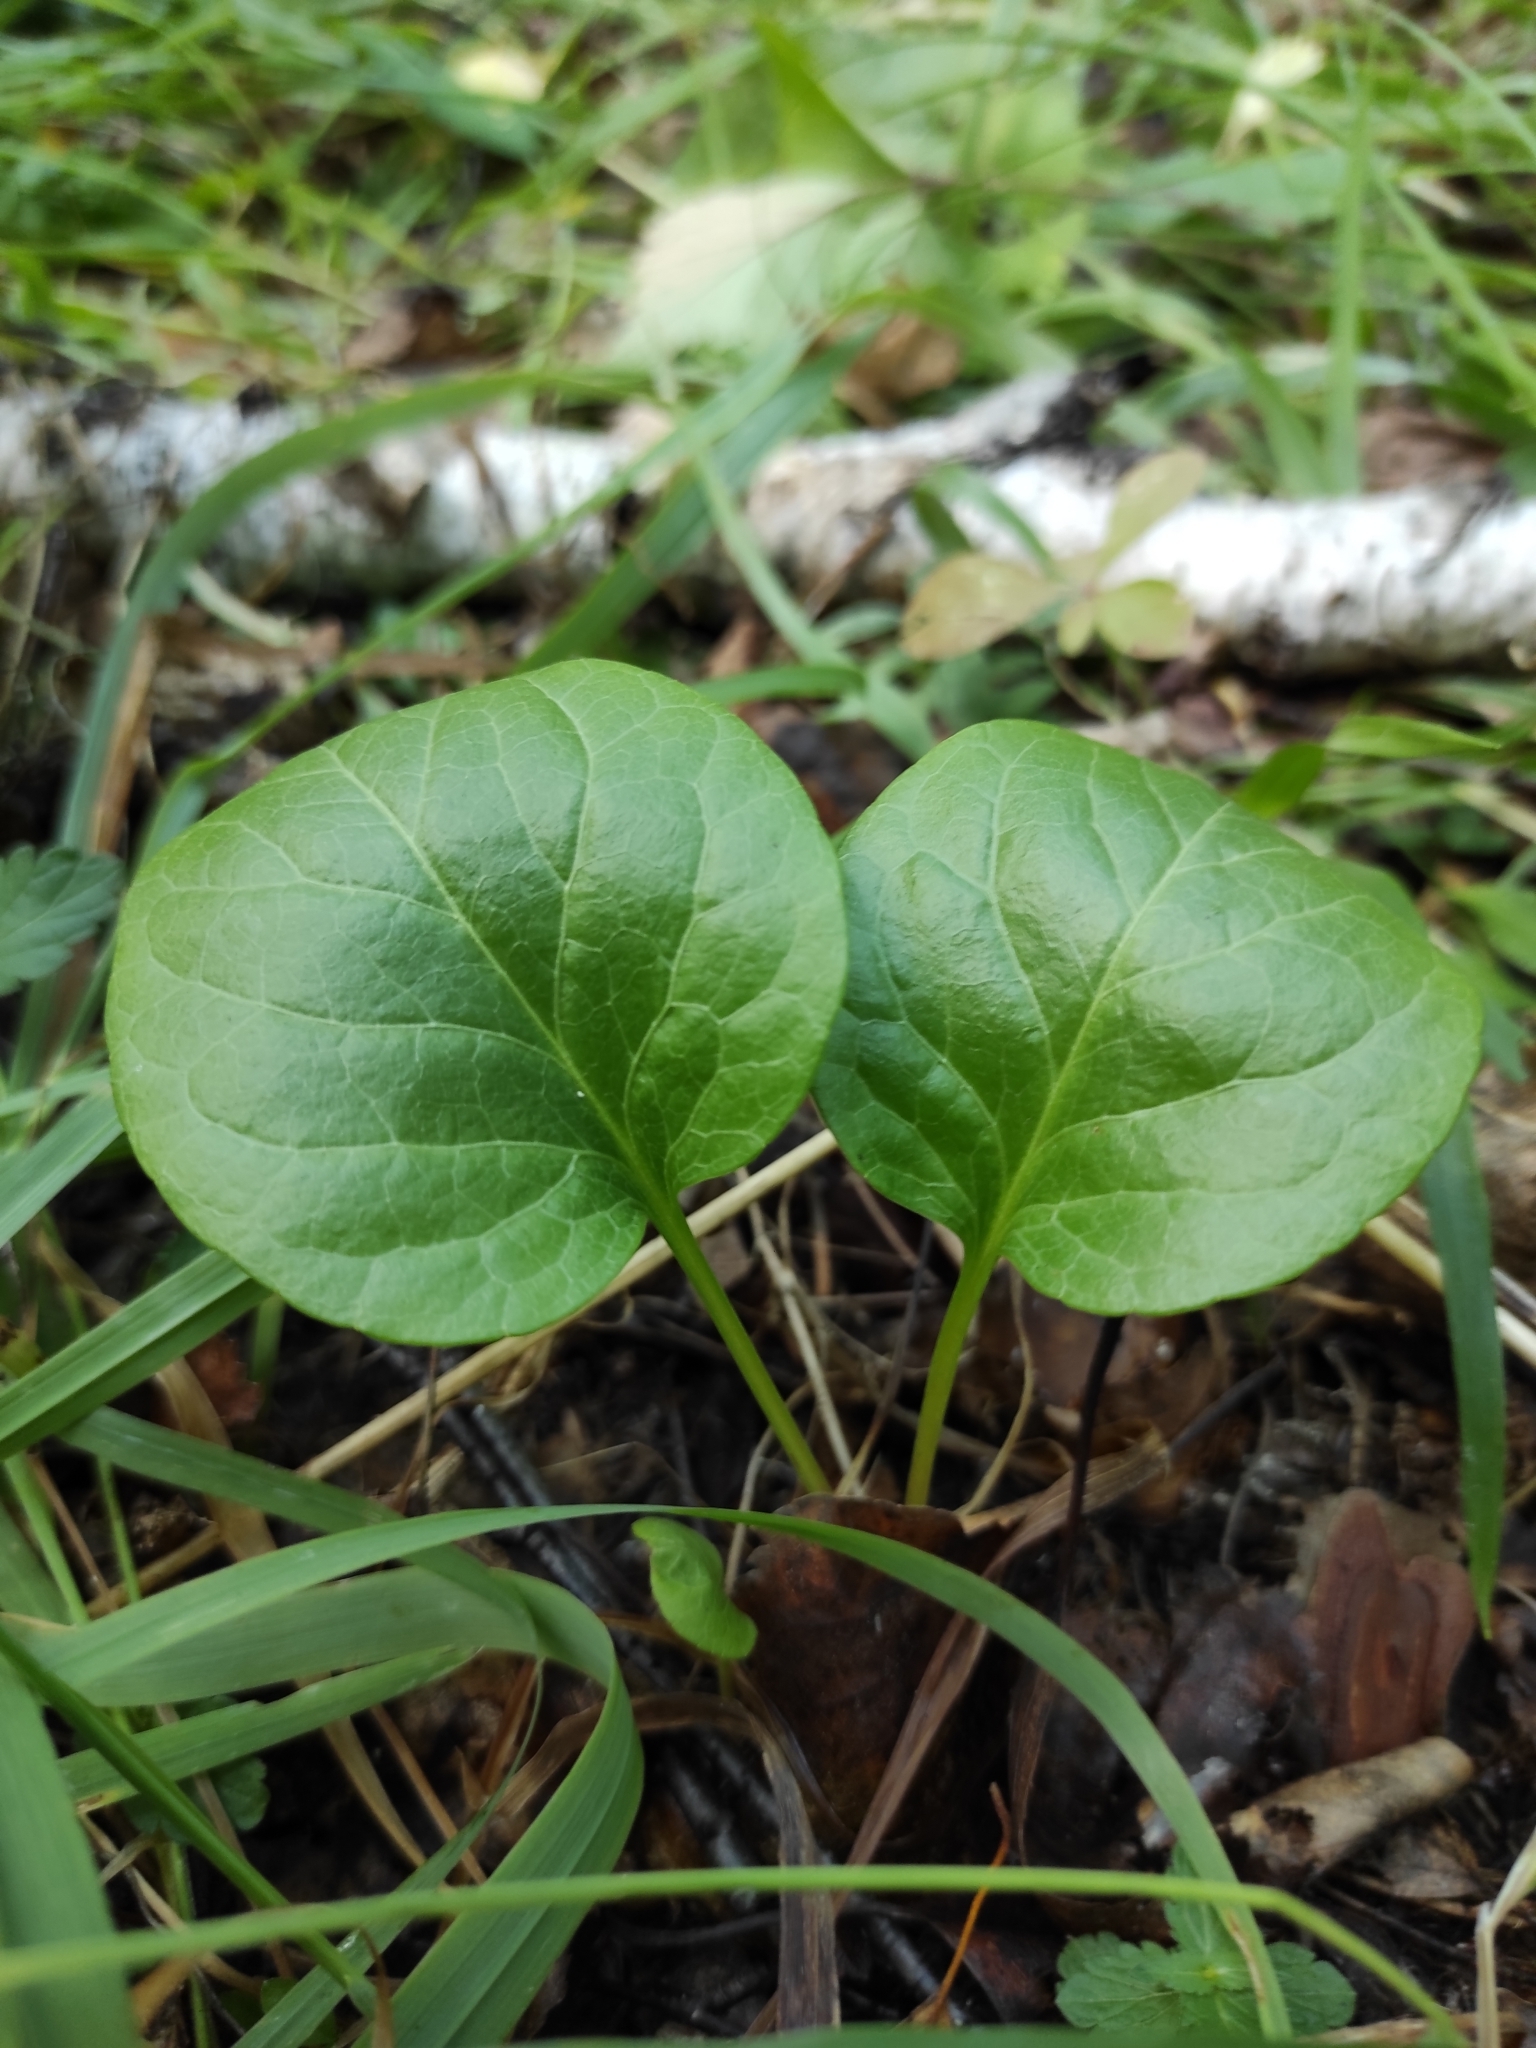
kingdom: Plantae
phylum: Tracheophyta
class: Magnoliopsida
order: Ericales
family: Ericaceae
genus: Pyrola
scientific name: Pyrola rotundifolia
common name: Round-leaved wintergreen
